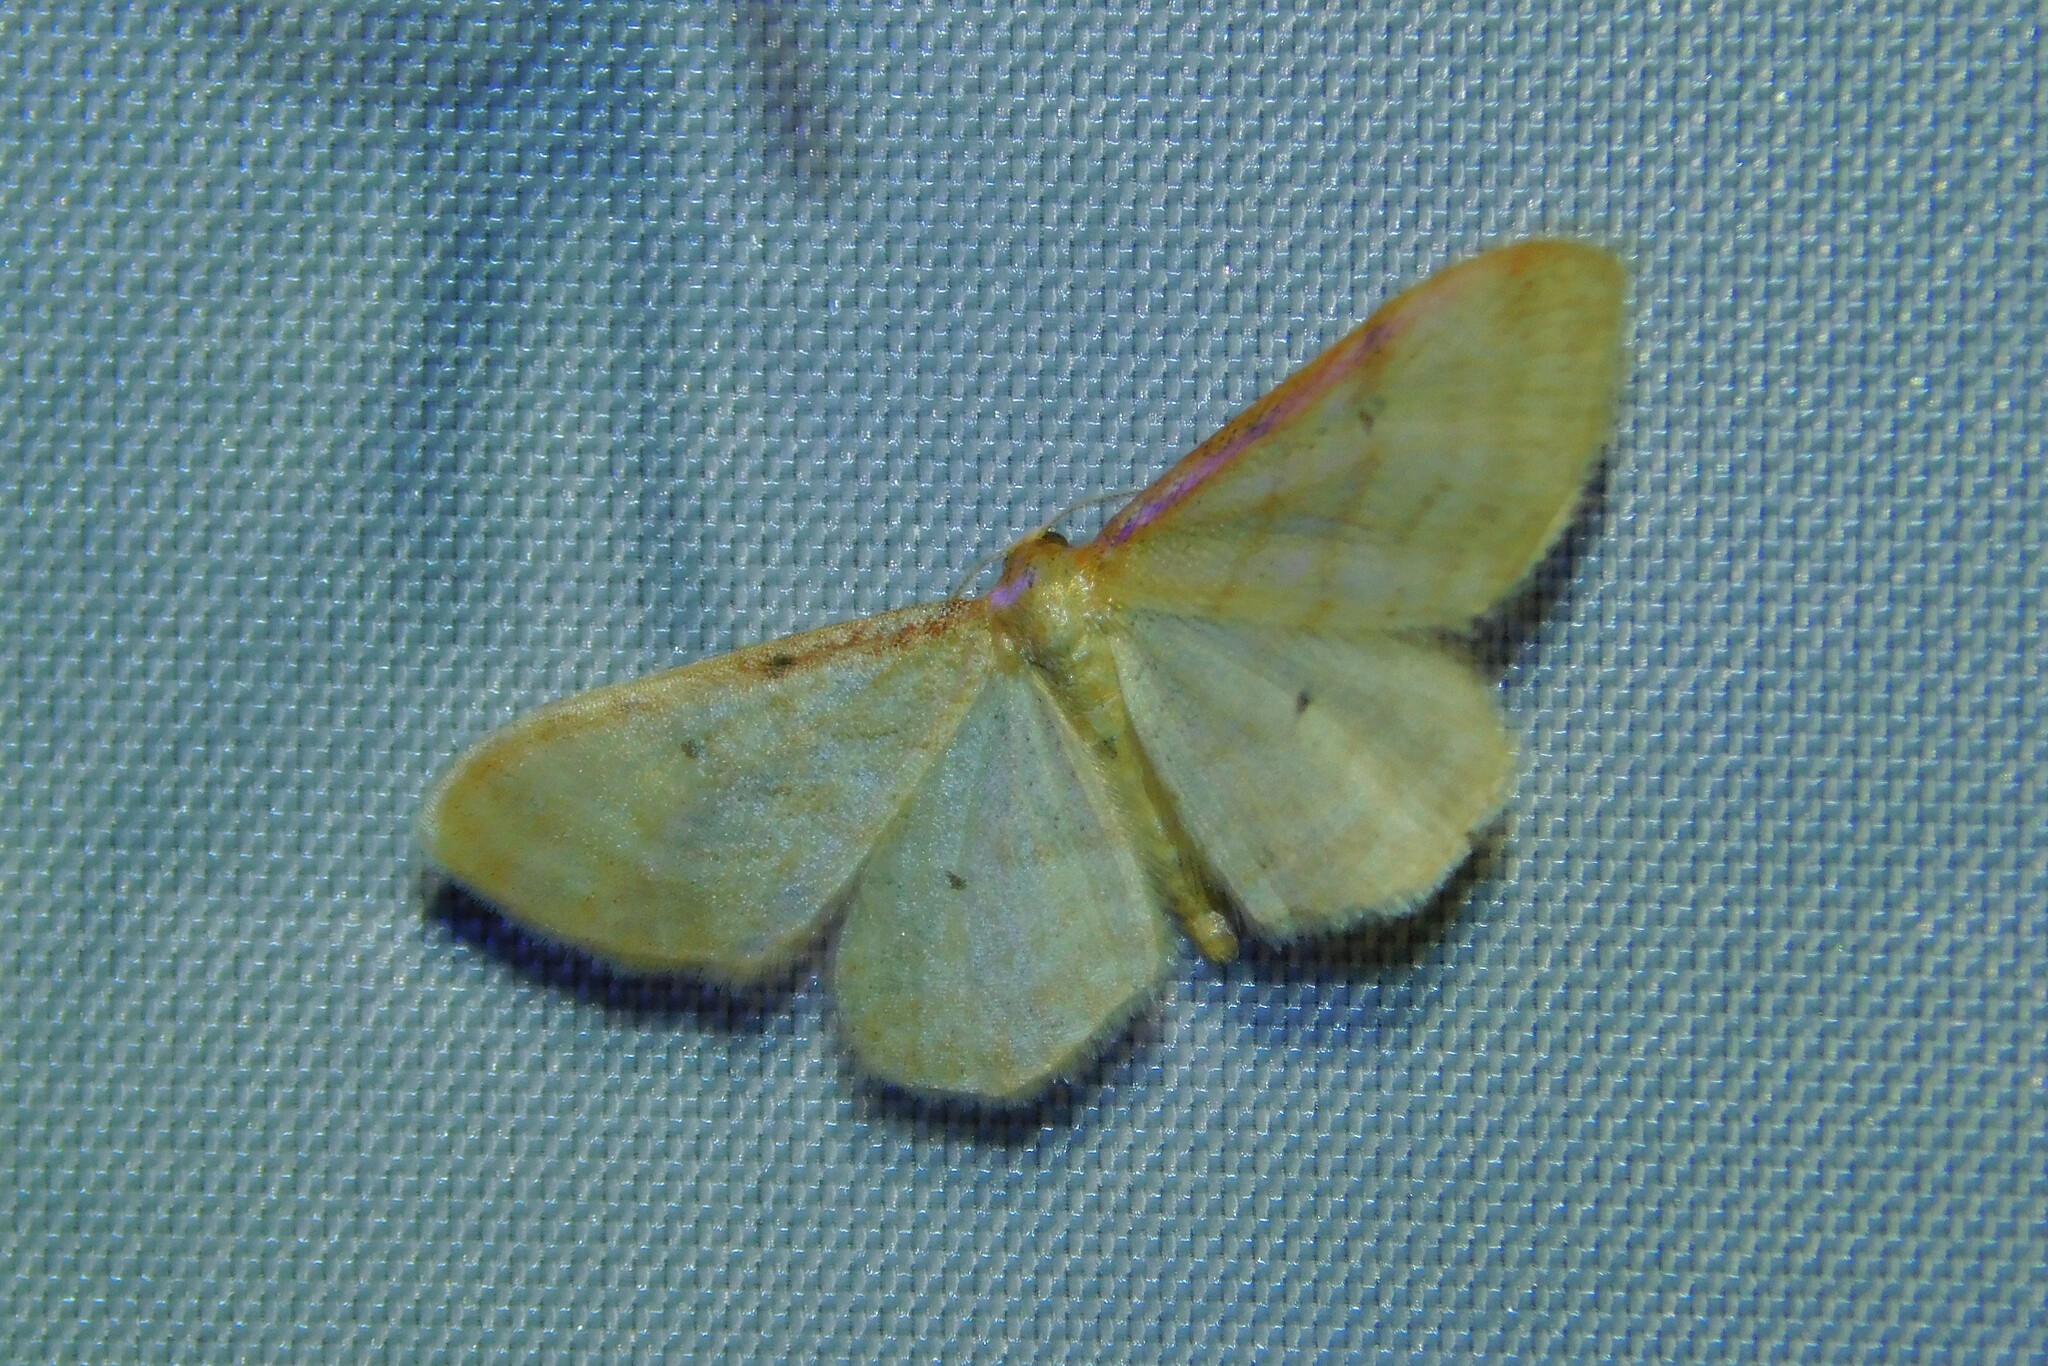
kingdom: Animalia
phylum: Arthropoda
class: Insecta
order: Lepidoptera
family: Geometridae
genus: Idaea
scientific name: Idaea humiliata
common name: Isle of wight wave
